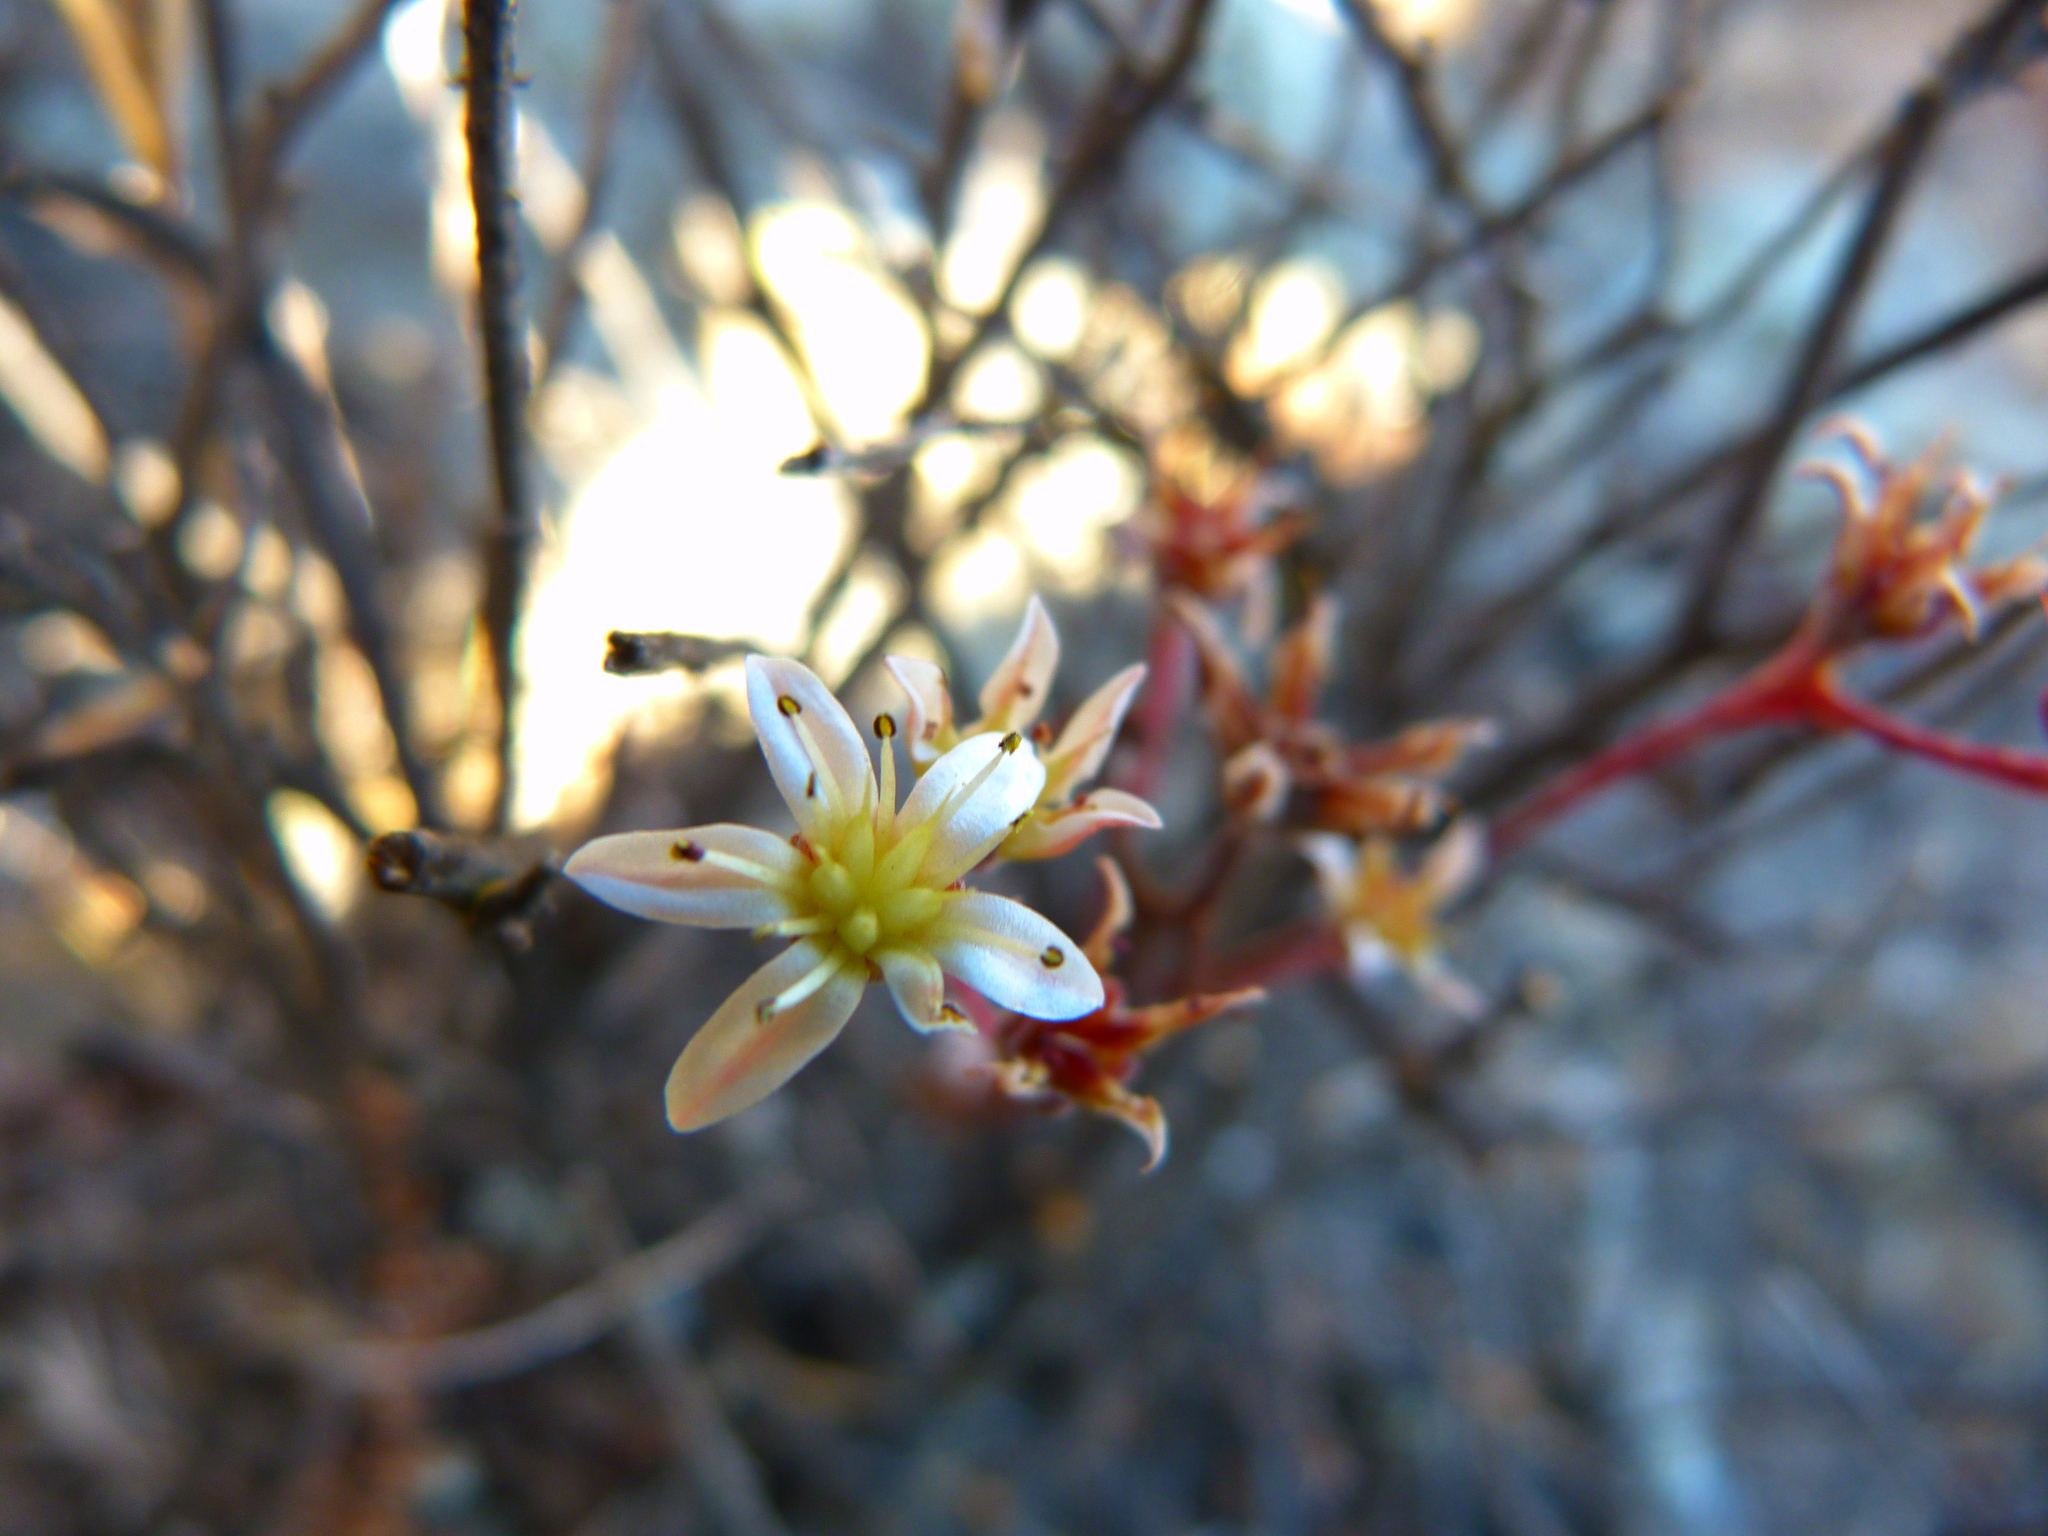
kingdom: Plantae
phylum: Tracheophyta
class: Magnoliopsida
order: Saxifragales
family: Crassulaceae
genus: Dudleya
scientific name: Dudleya blochmaniae
